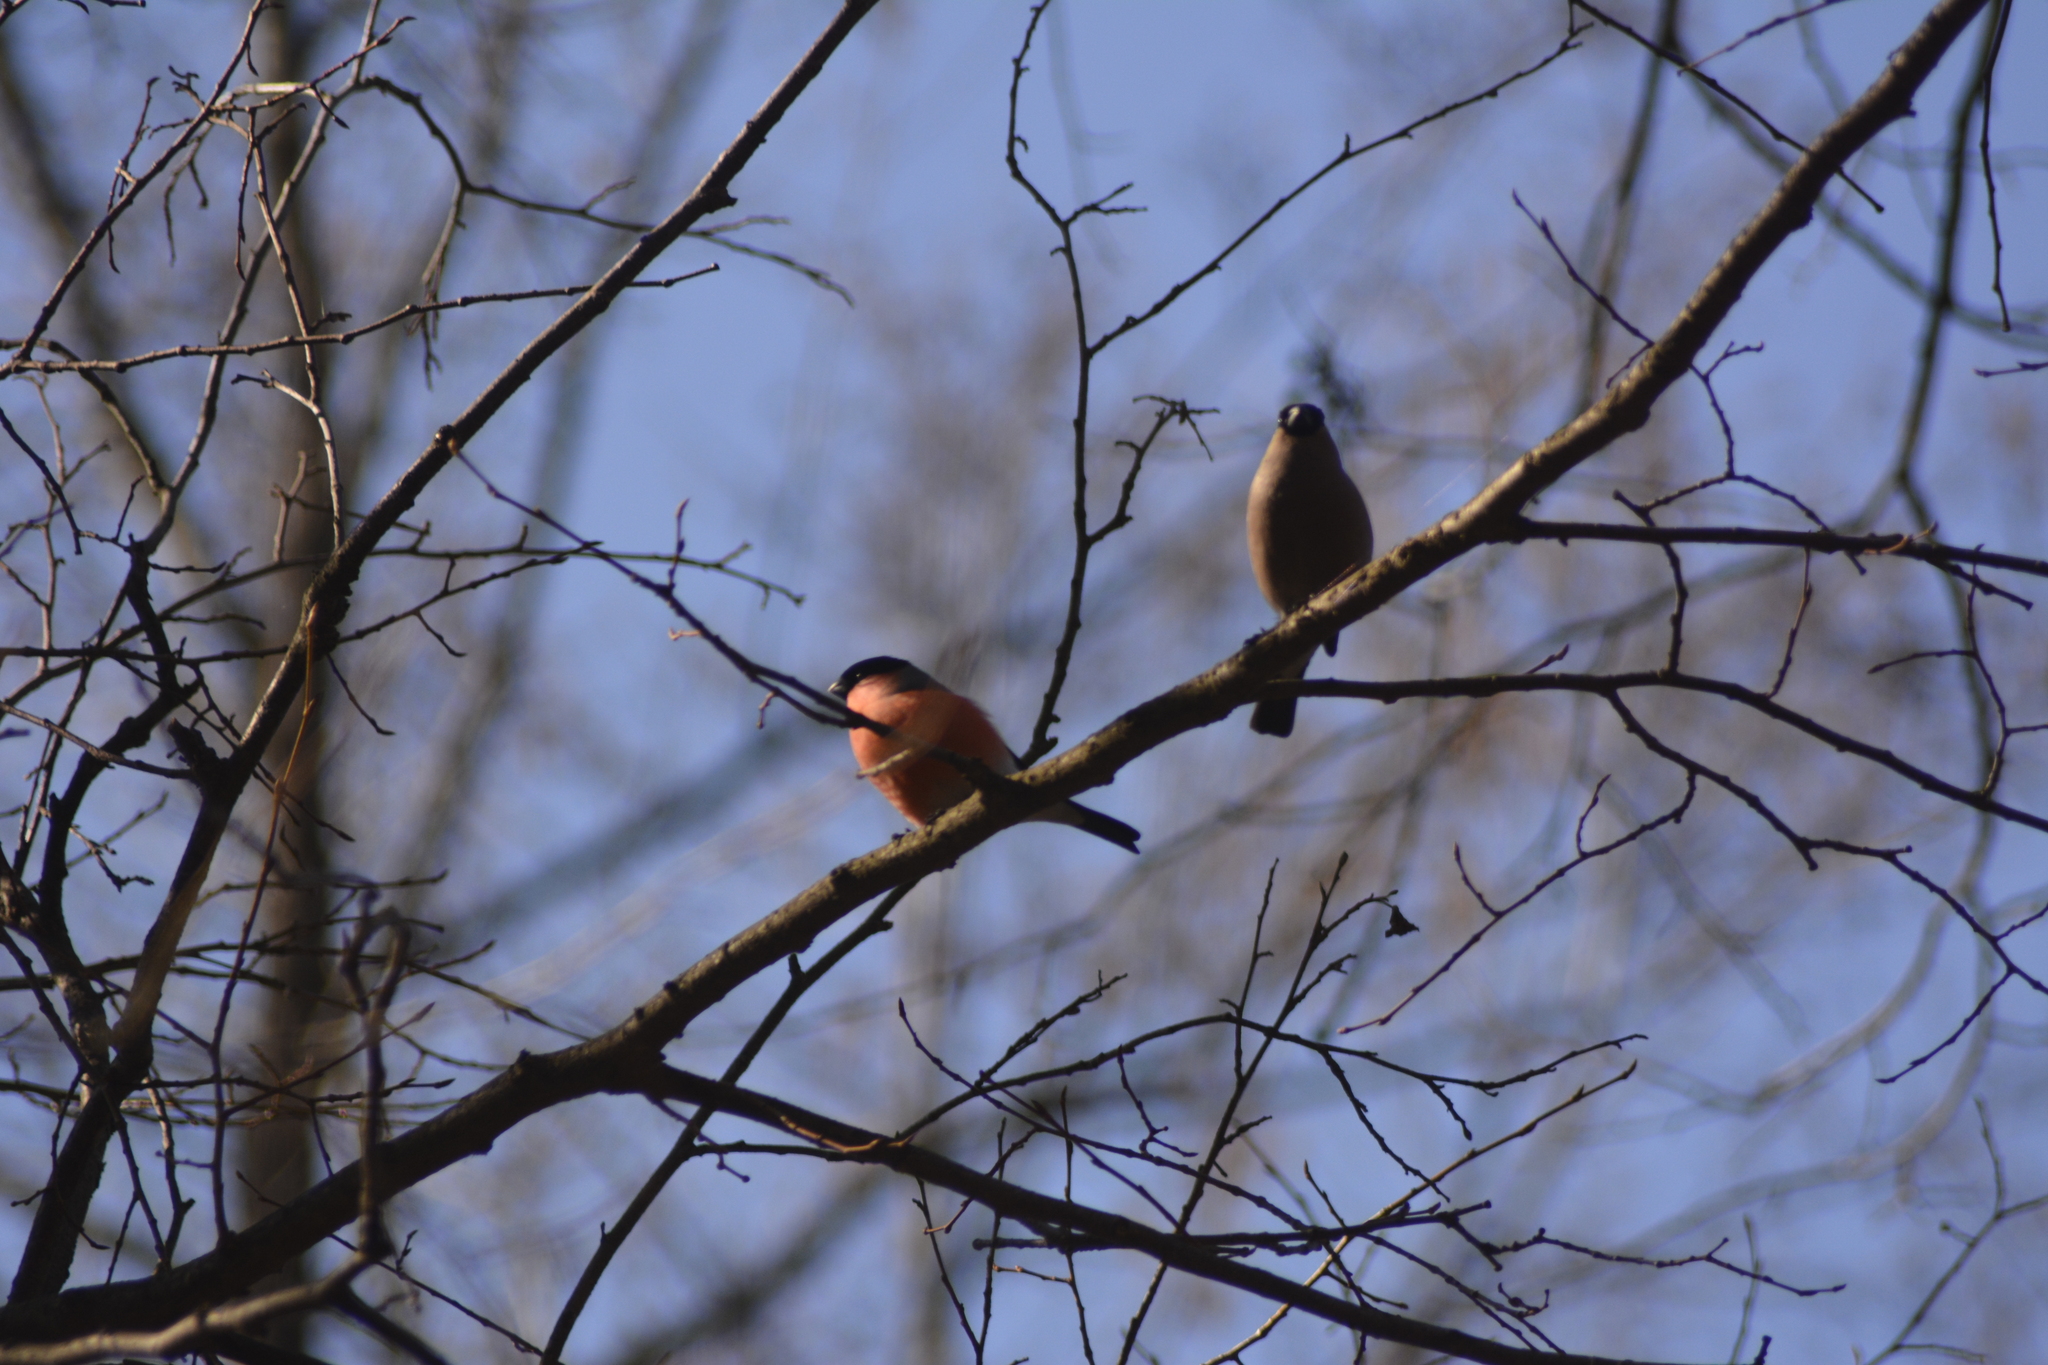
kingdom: Animalia
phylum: Chordata
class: Aves
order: Passeriformes
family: Fringillidae
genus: Pyrrhula
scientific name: Pyrrhula pyrrhula
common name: Eurasian bullfinch
